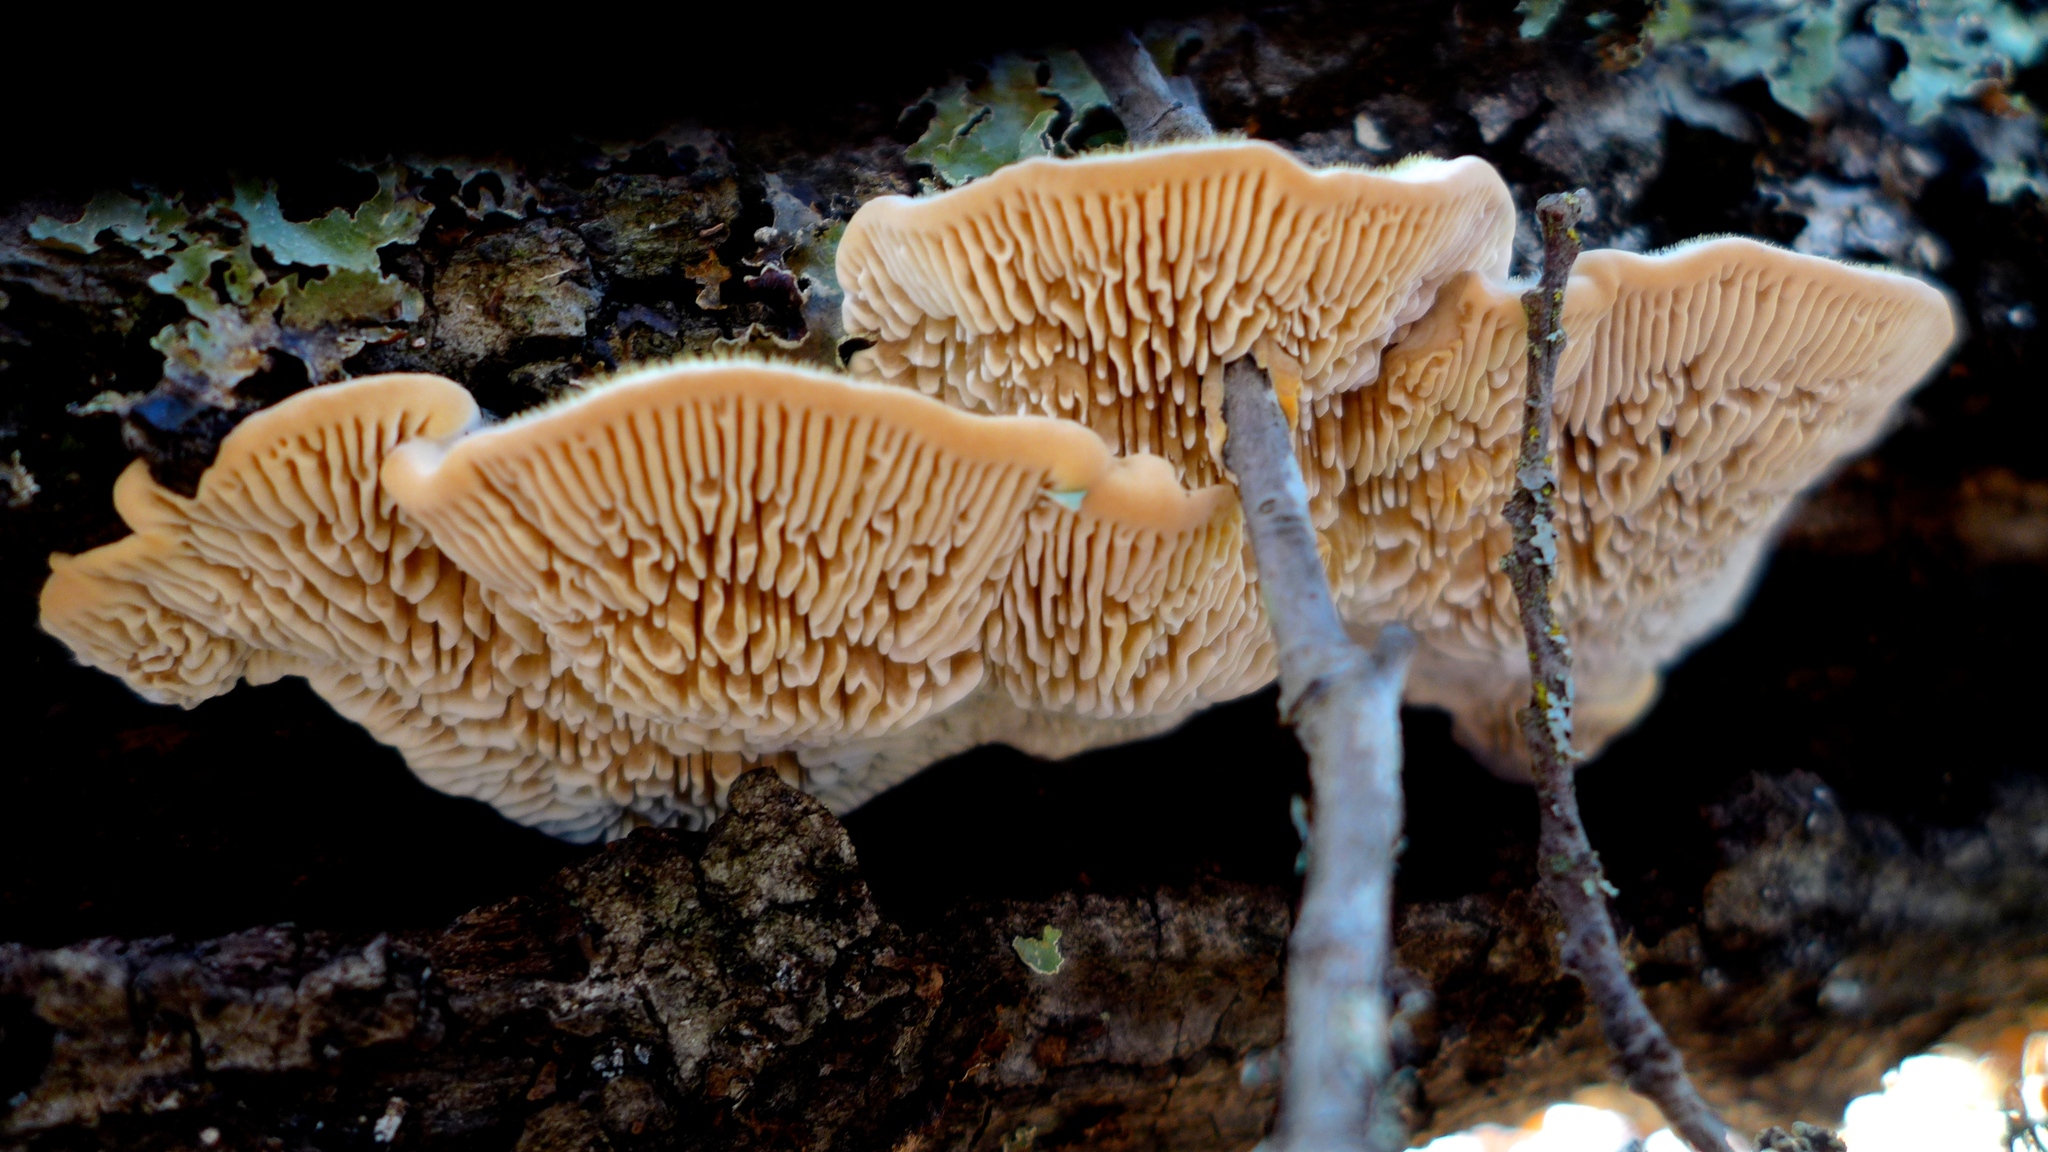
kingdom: Fungi
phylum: Basidiomycota
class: Agaricomycetes
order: Polyporales
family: Polyporaceae
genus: Lenzites
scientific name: Lenzites betulinus
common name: Birch mazegill
